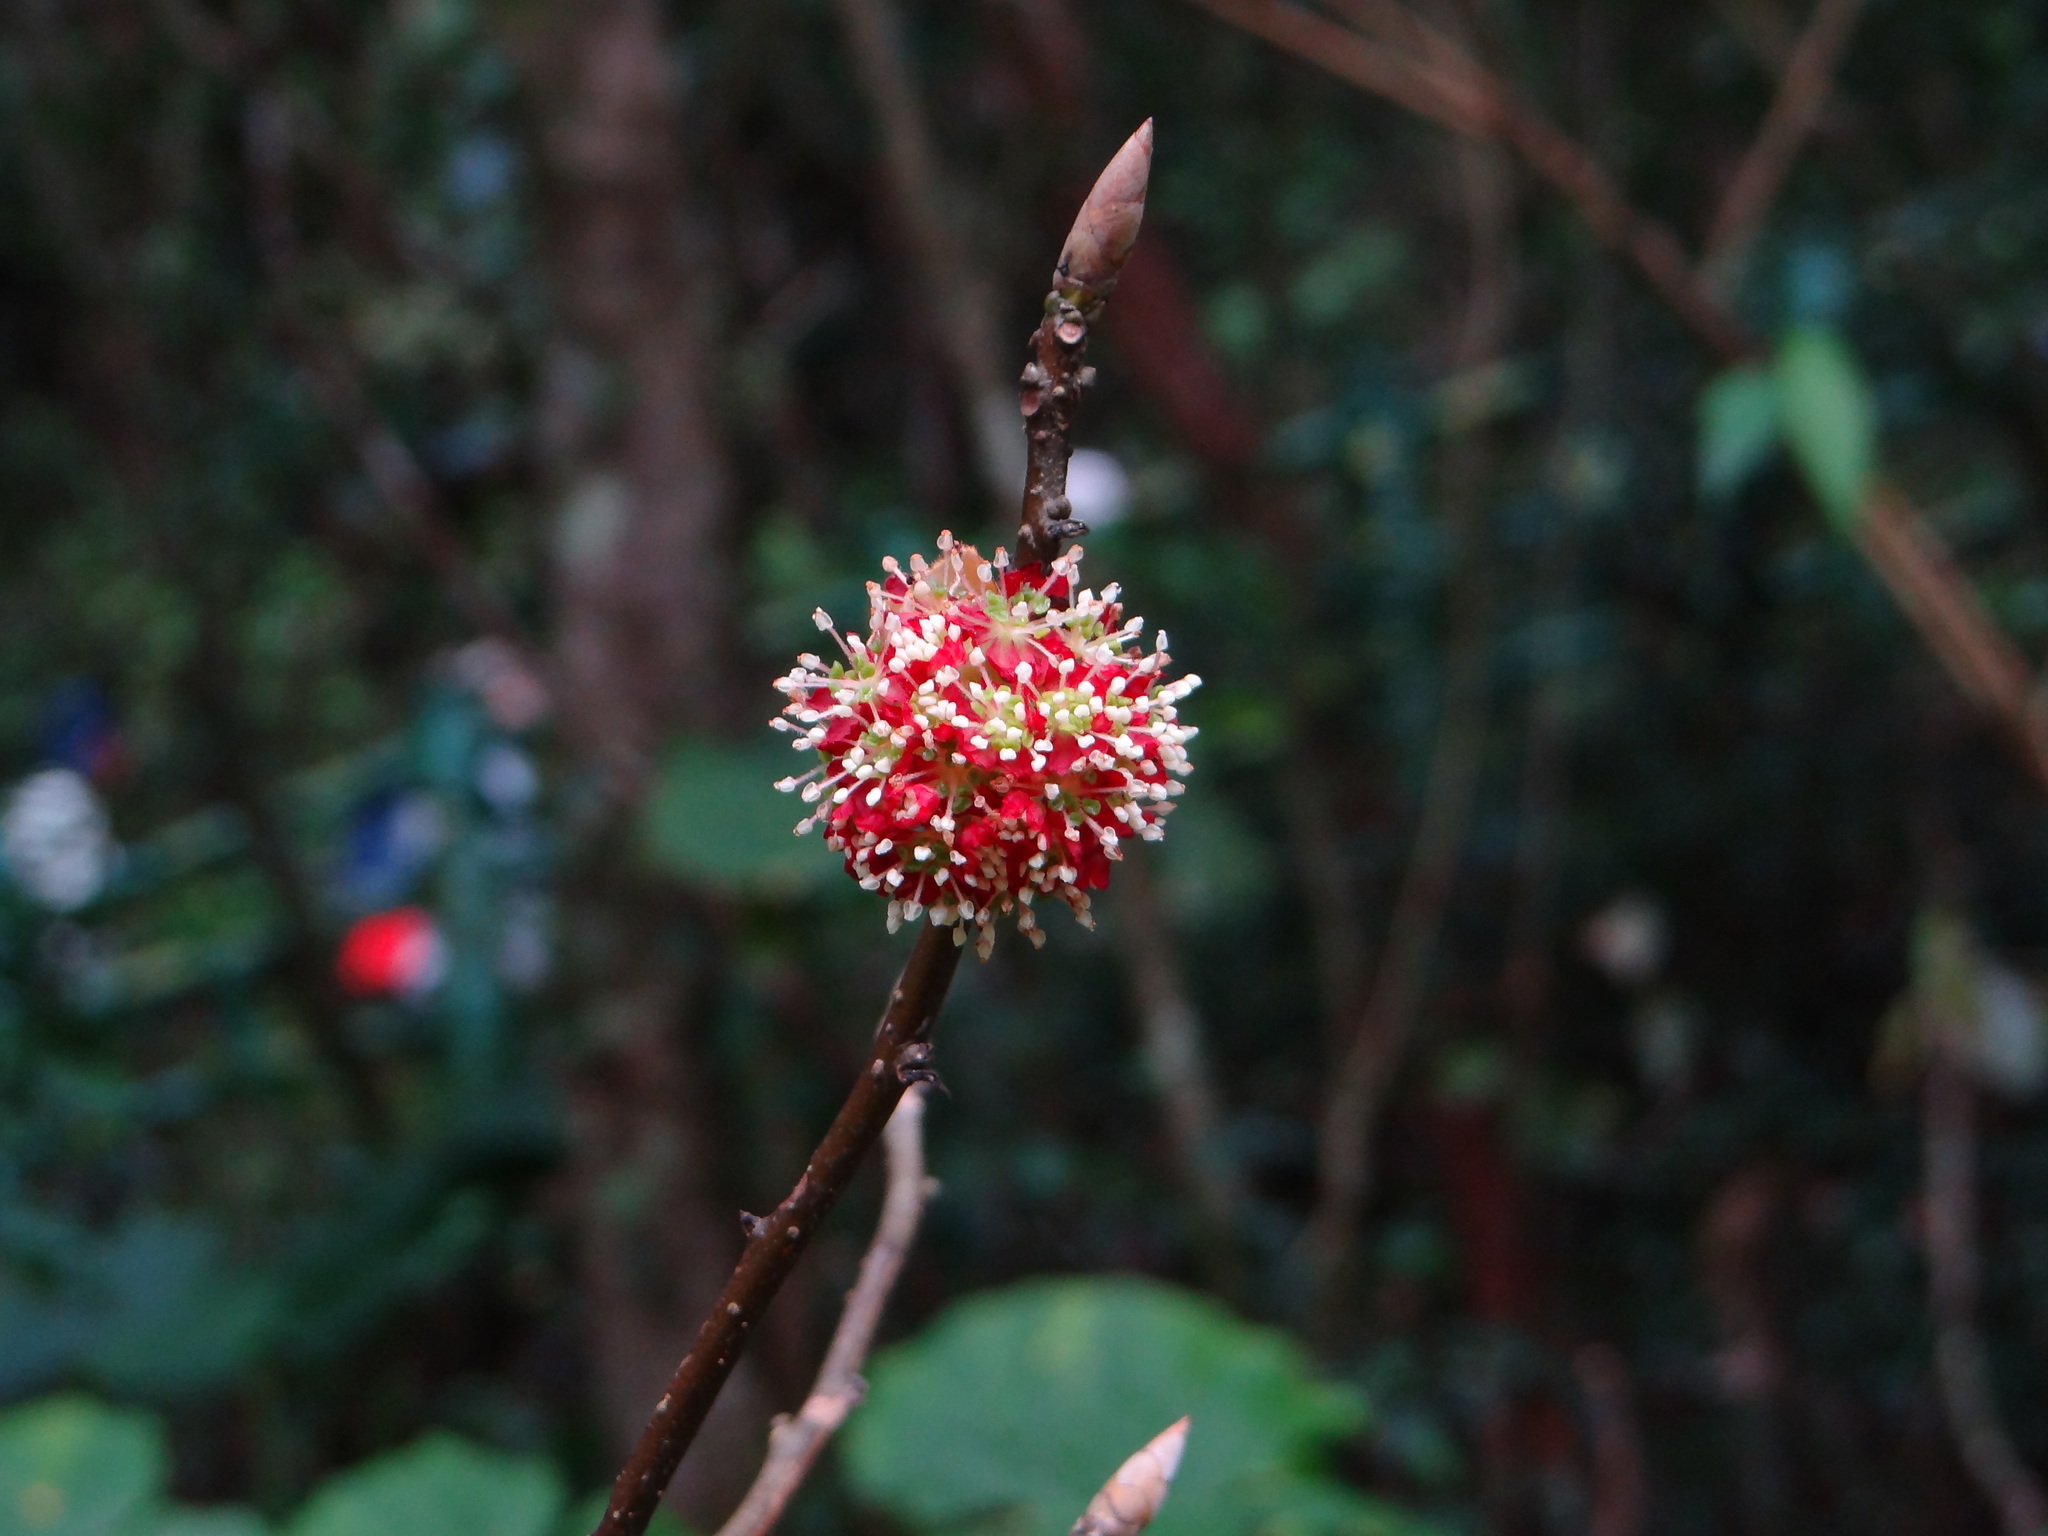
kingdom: Plantae
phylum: Tracheophyta
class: Magnoliopsida
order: Laurales
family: Lauraceae
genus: Lindera
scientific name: Lindera megaphylla
